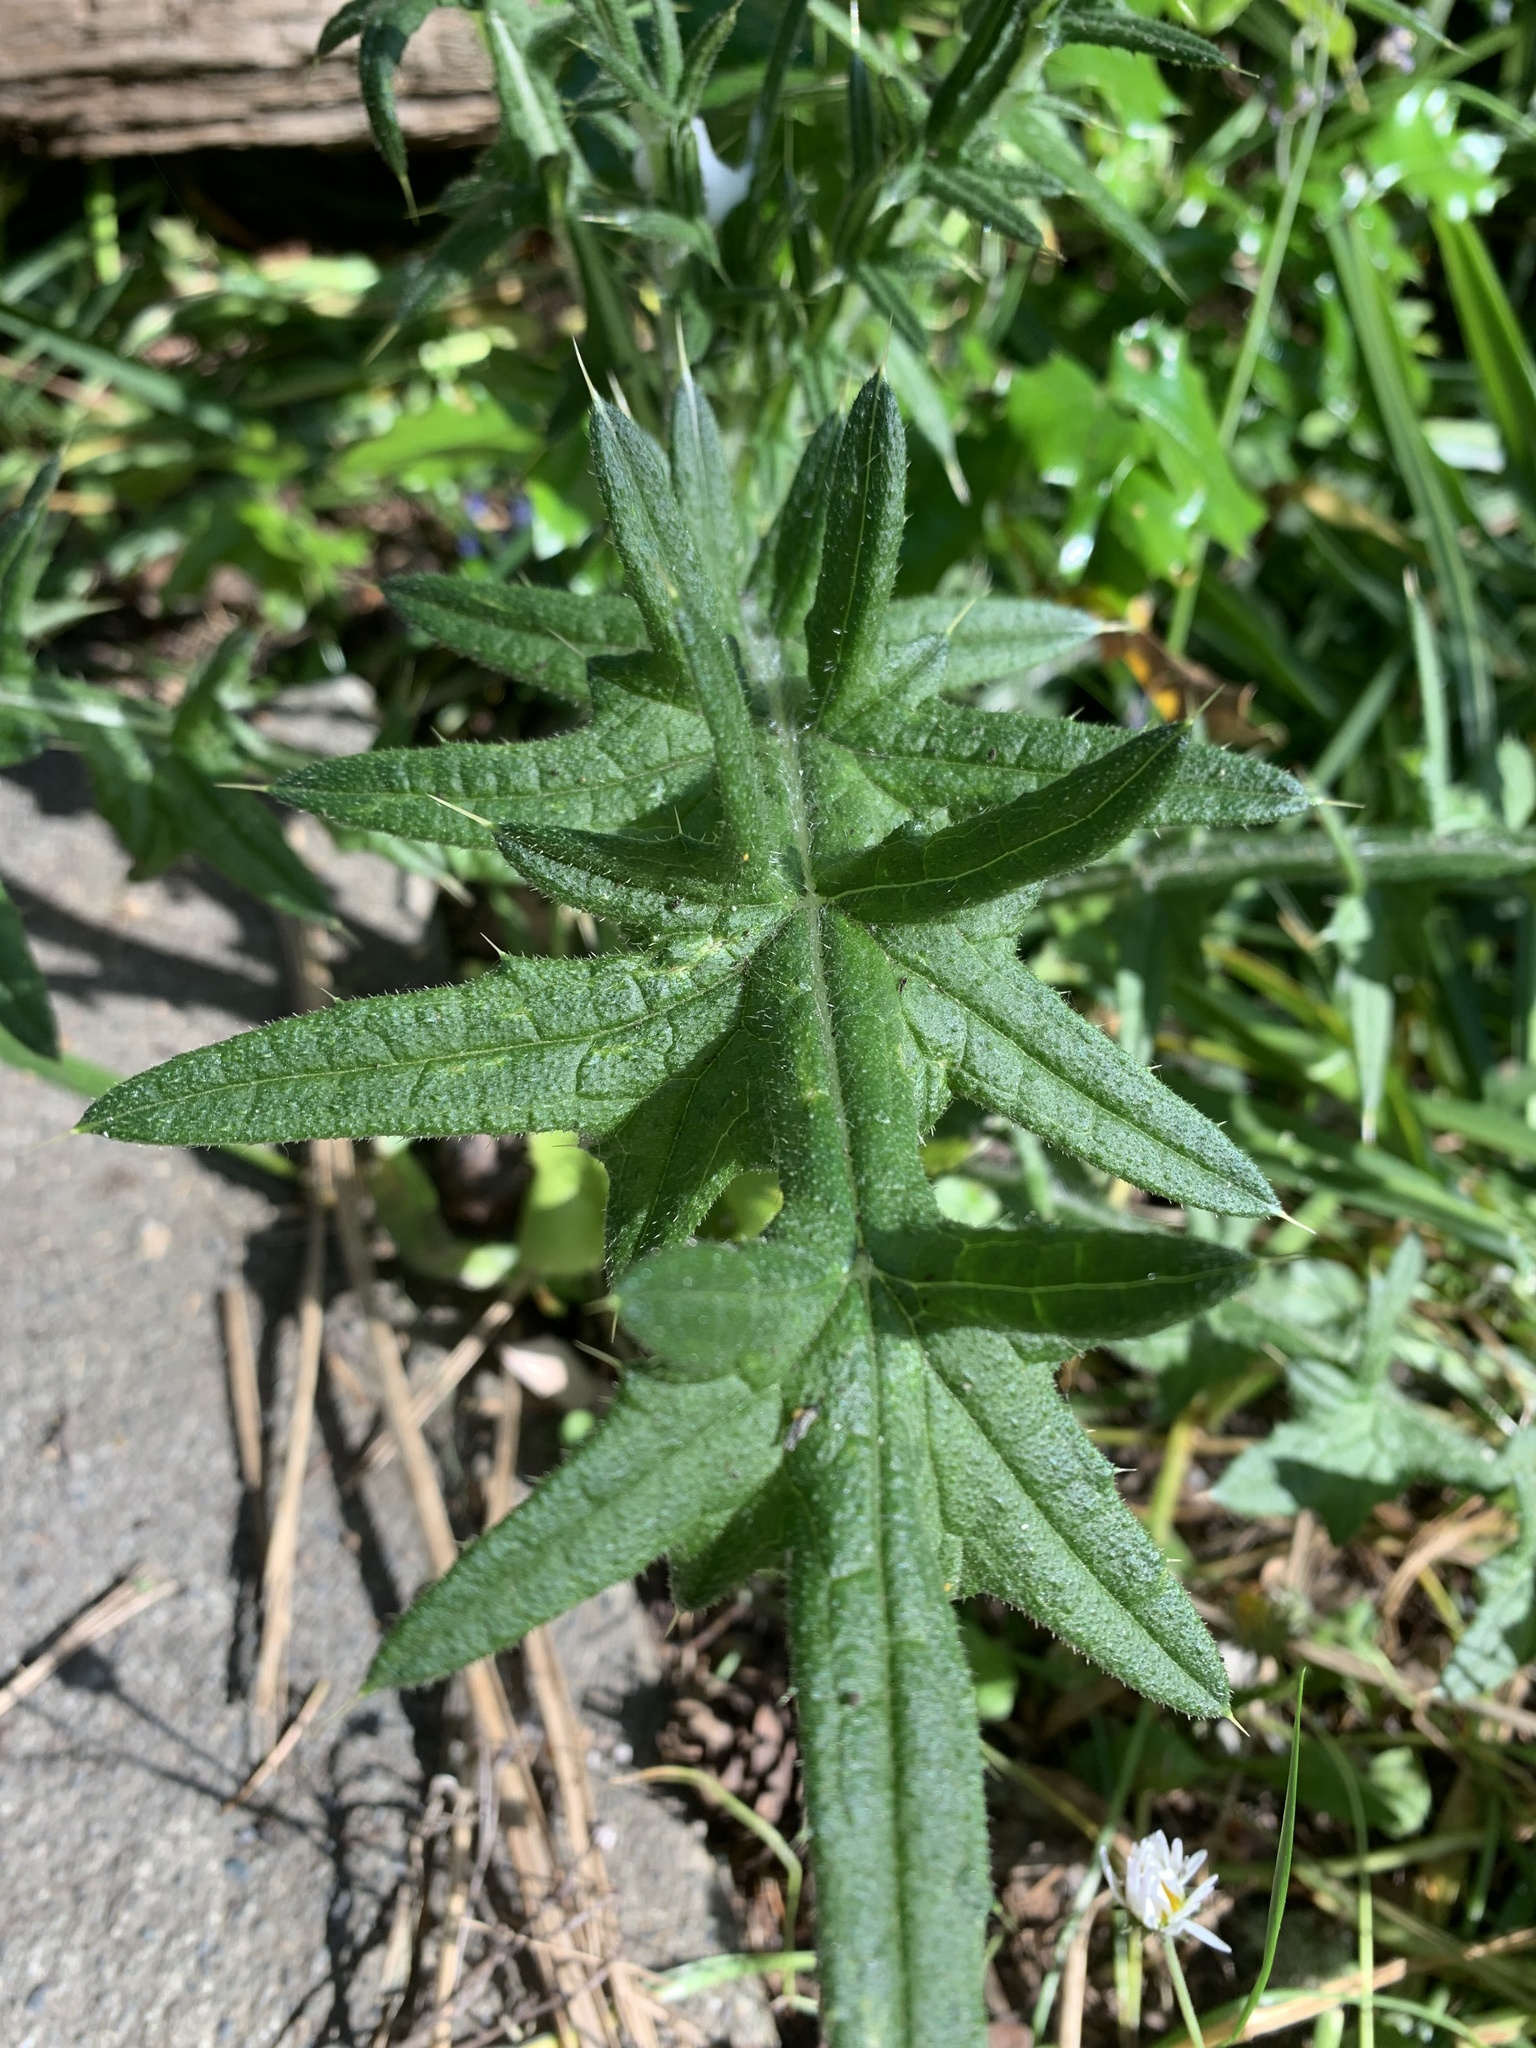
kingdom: Plantae
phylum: Tracheophyta
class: Magnoliopsida
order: Asterales
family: Asteraceae
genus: Cirsium
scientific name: Cirsium vulgare
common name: Bull thistle
